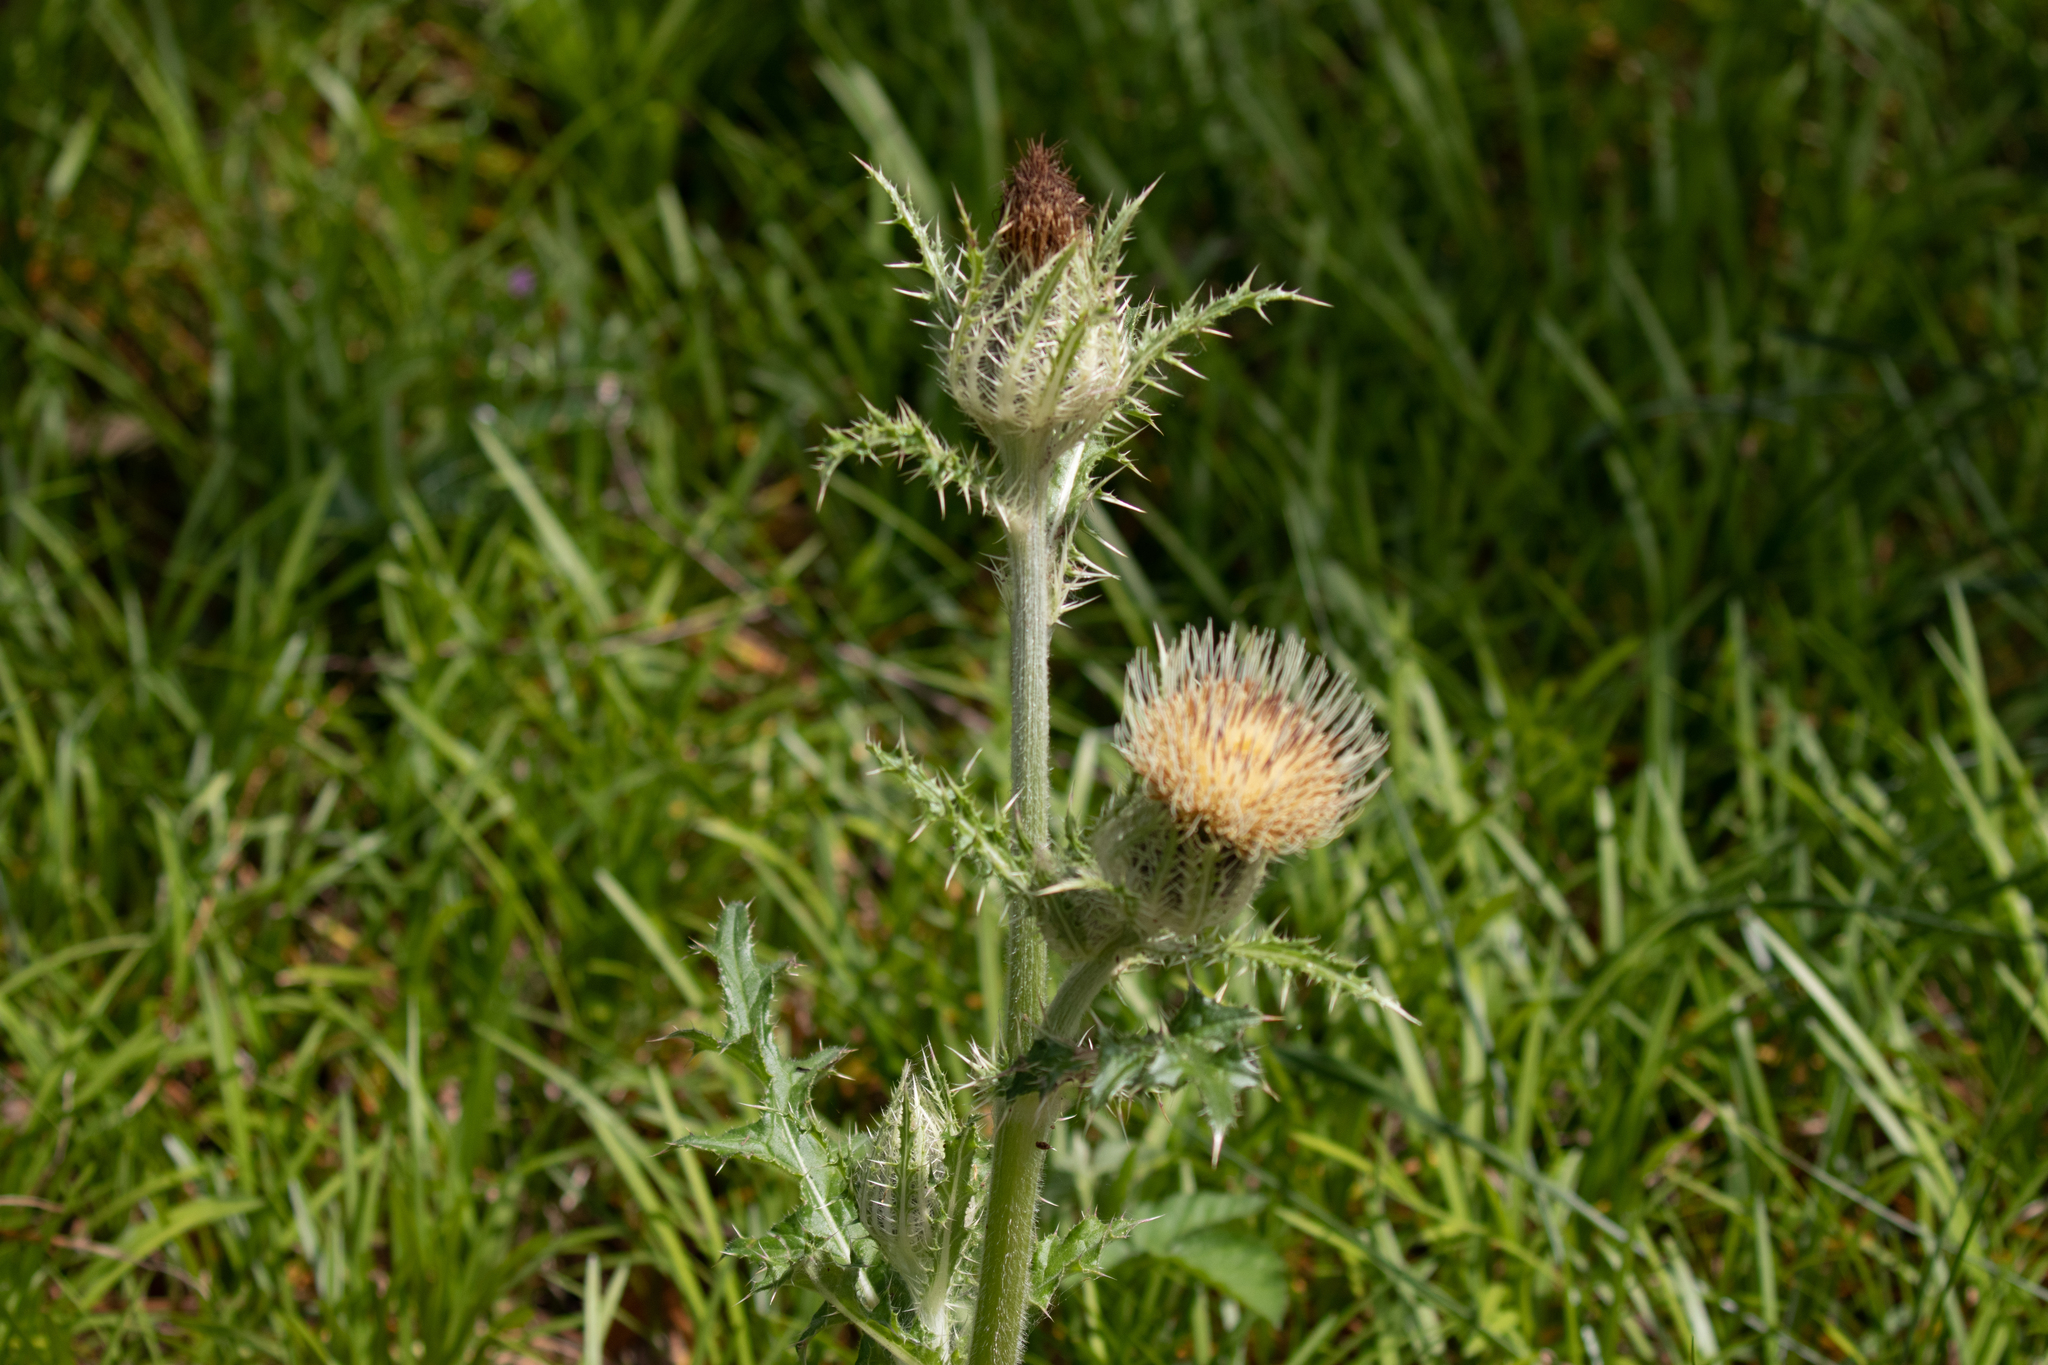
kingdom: Plantae
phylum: Tracheophyta
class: Magnoliopsida
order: Asterales
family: Asteraceae
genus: Cirsium
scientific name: Cirsium horridulum
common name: Bristly thistle
